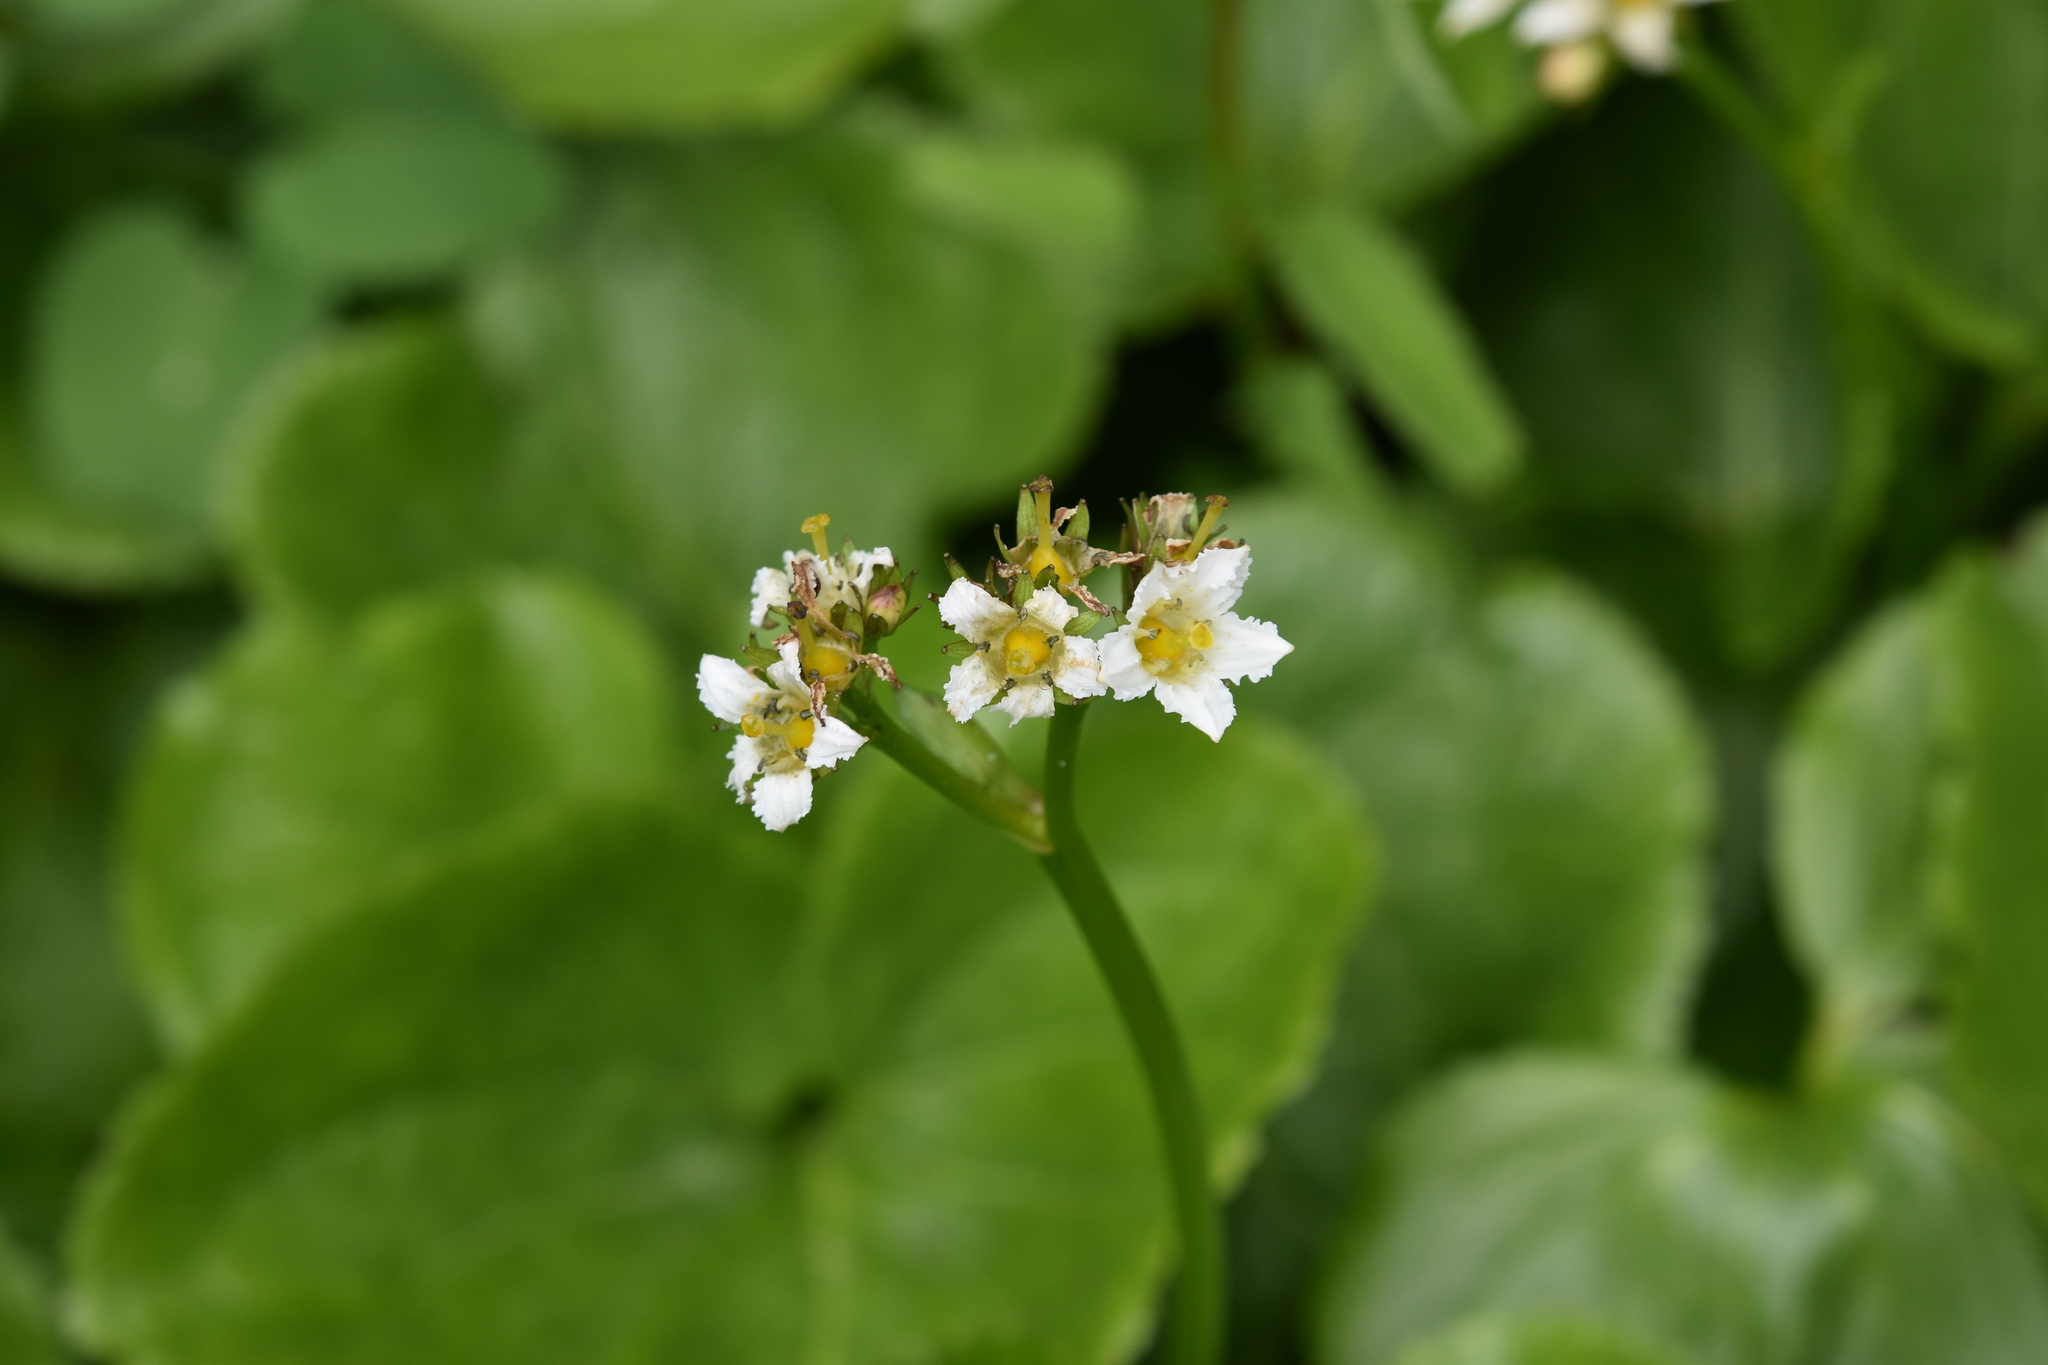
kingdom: Plantae
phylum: Tracheophyta
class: Magnoliopsida
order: Asterales
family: Menyanthaceae
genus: Nephrophyllidium
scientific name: Nephrophyllidium crista-galli
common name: Deer-cabbage
